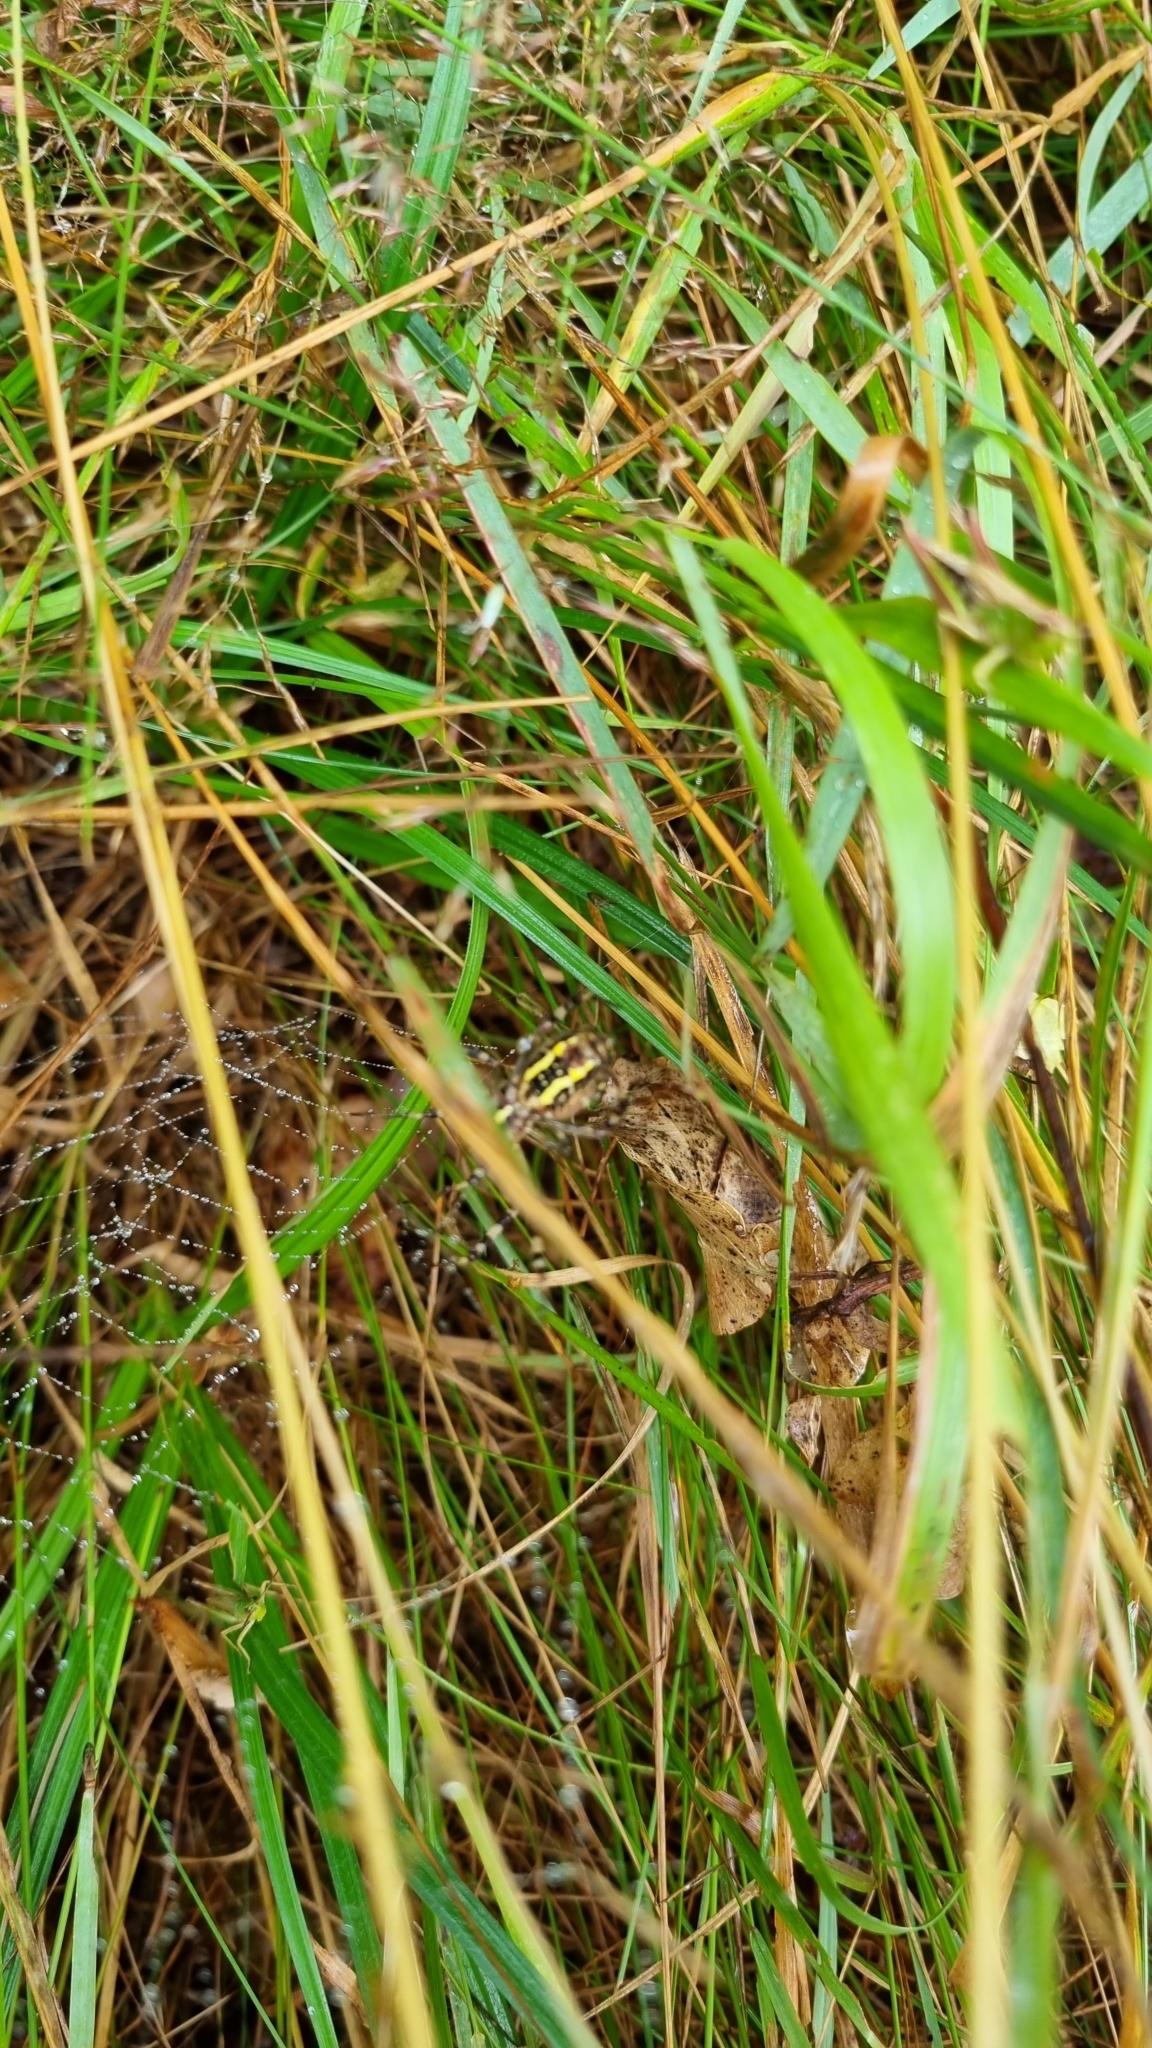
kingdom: Animalia
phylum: Arthropoda
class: Arachnida
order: Araneae
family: Araneidae
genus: Argiope
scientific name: Argiope bruennichi
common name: Wasp spider
